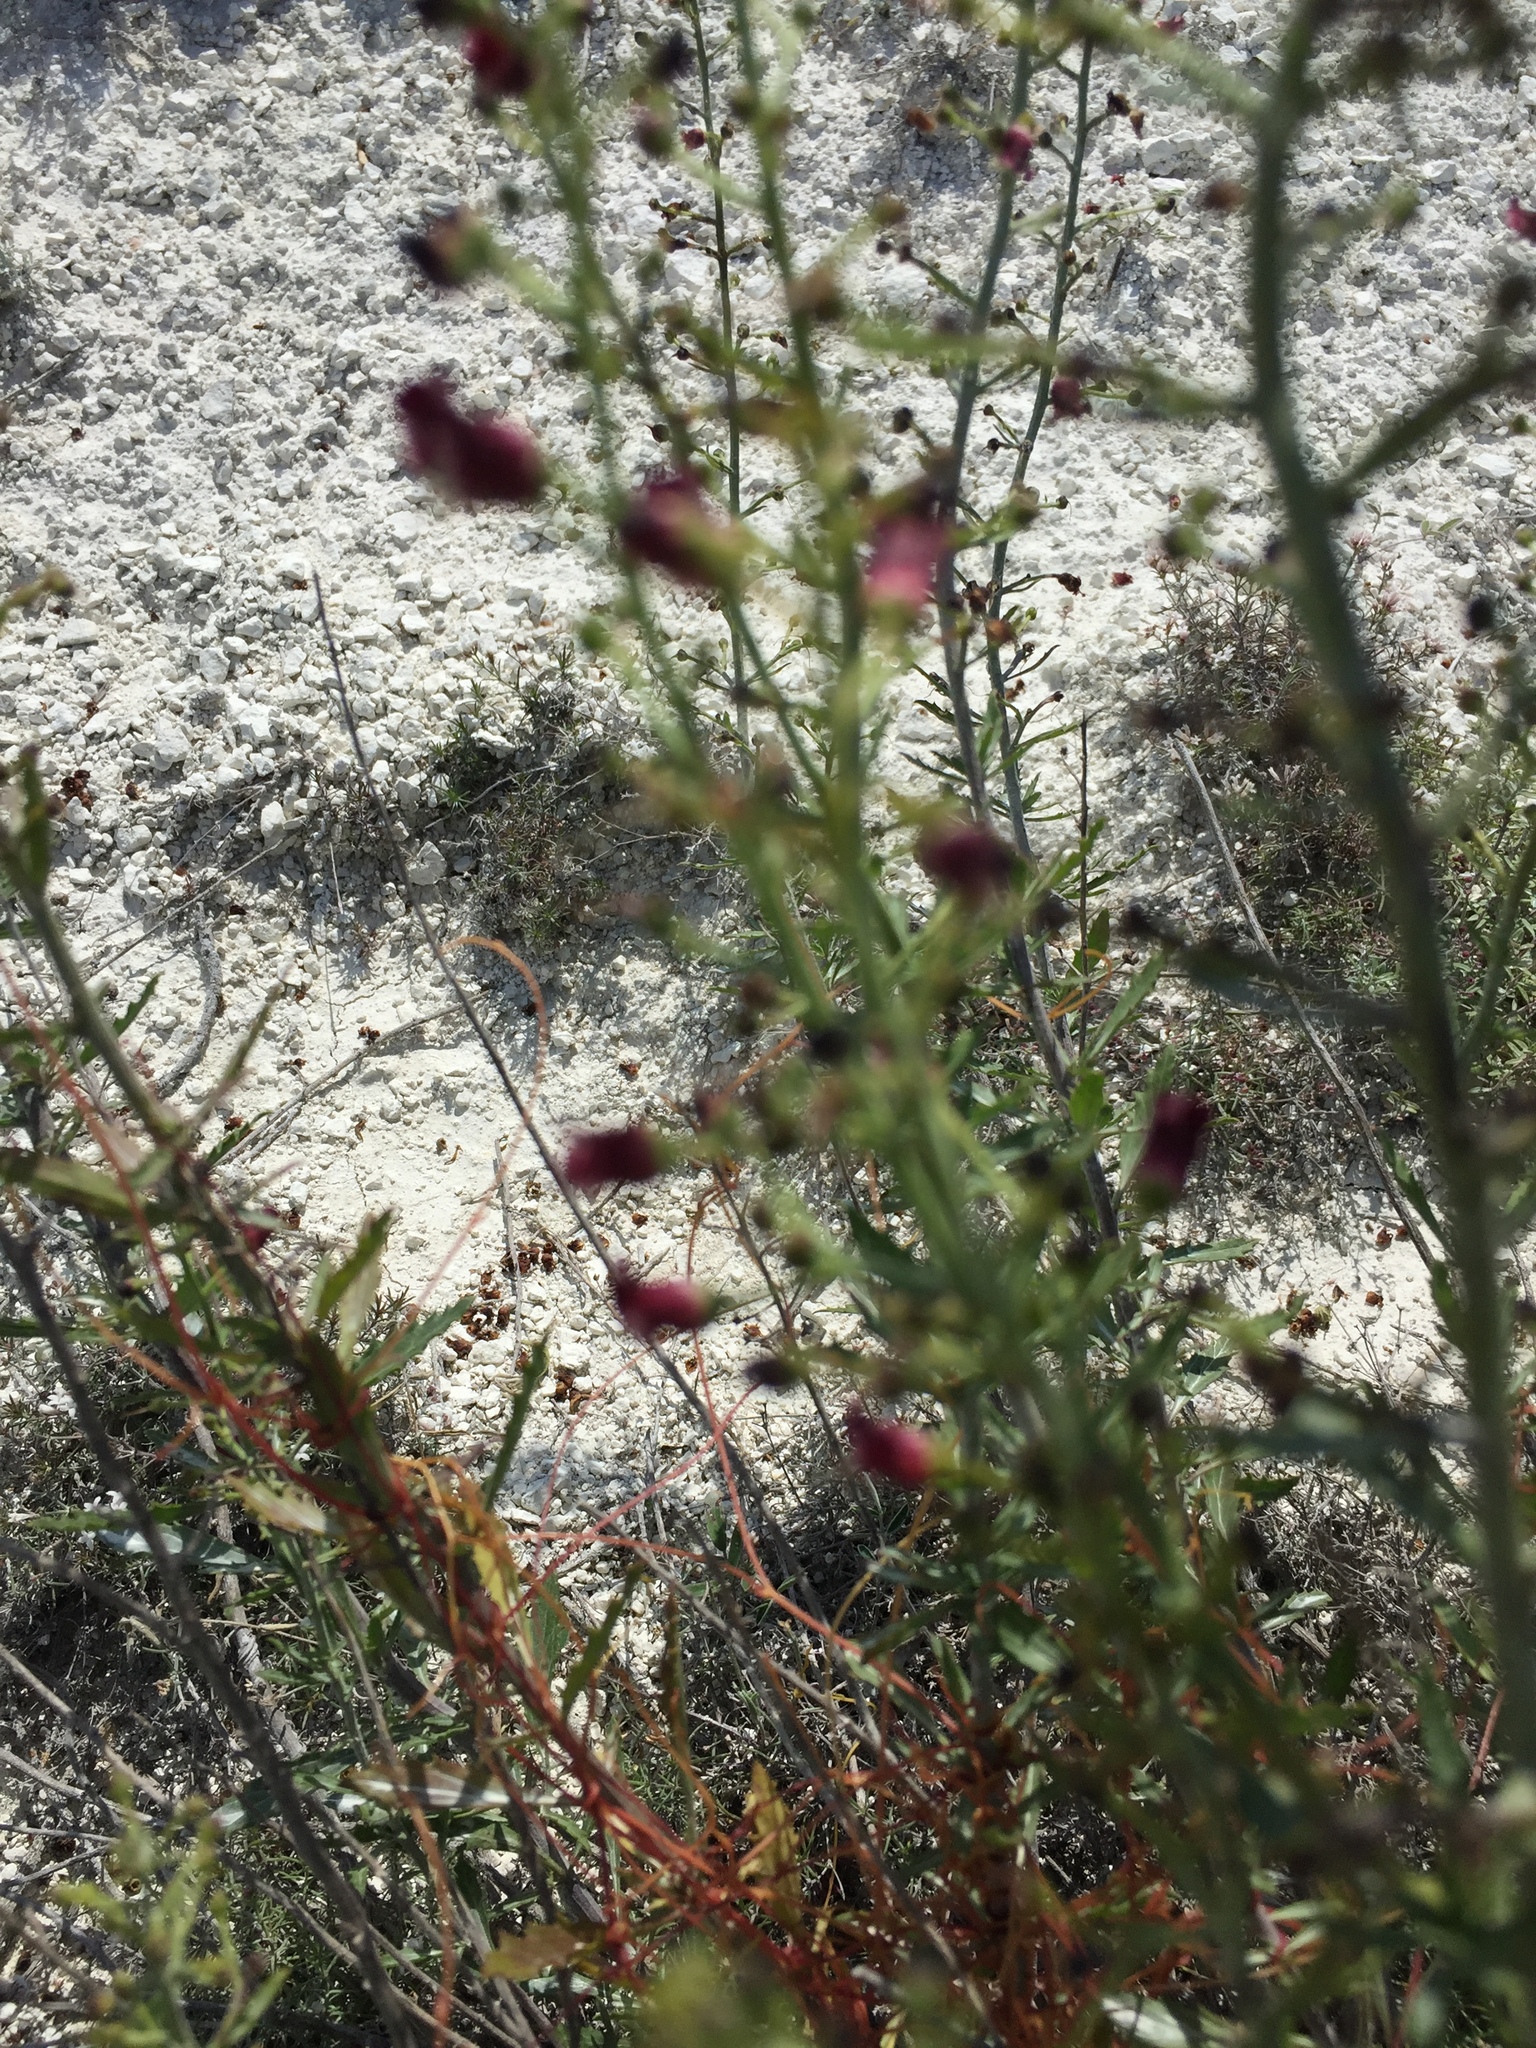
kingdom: Plantae
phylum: Tracheophyta
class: Magnoliopsida
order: Lamiales
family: Scrophulariaceae
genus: Scrophularia
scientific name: Scrophularia cretacea
